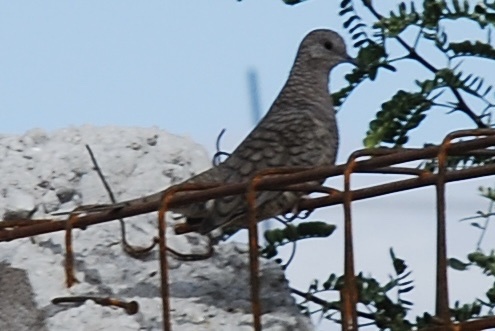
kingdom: Animalia
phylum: Chordata
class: Aves
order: Columbiformes
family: Columbidae
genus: Columbina
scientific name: Columbina inca
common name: Inca dove
